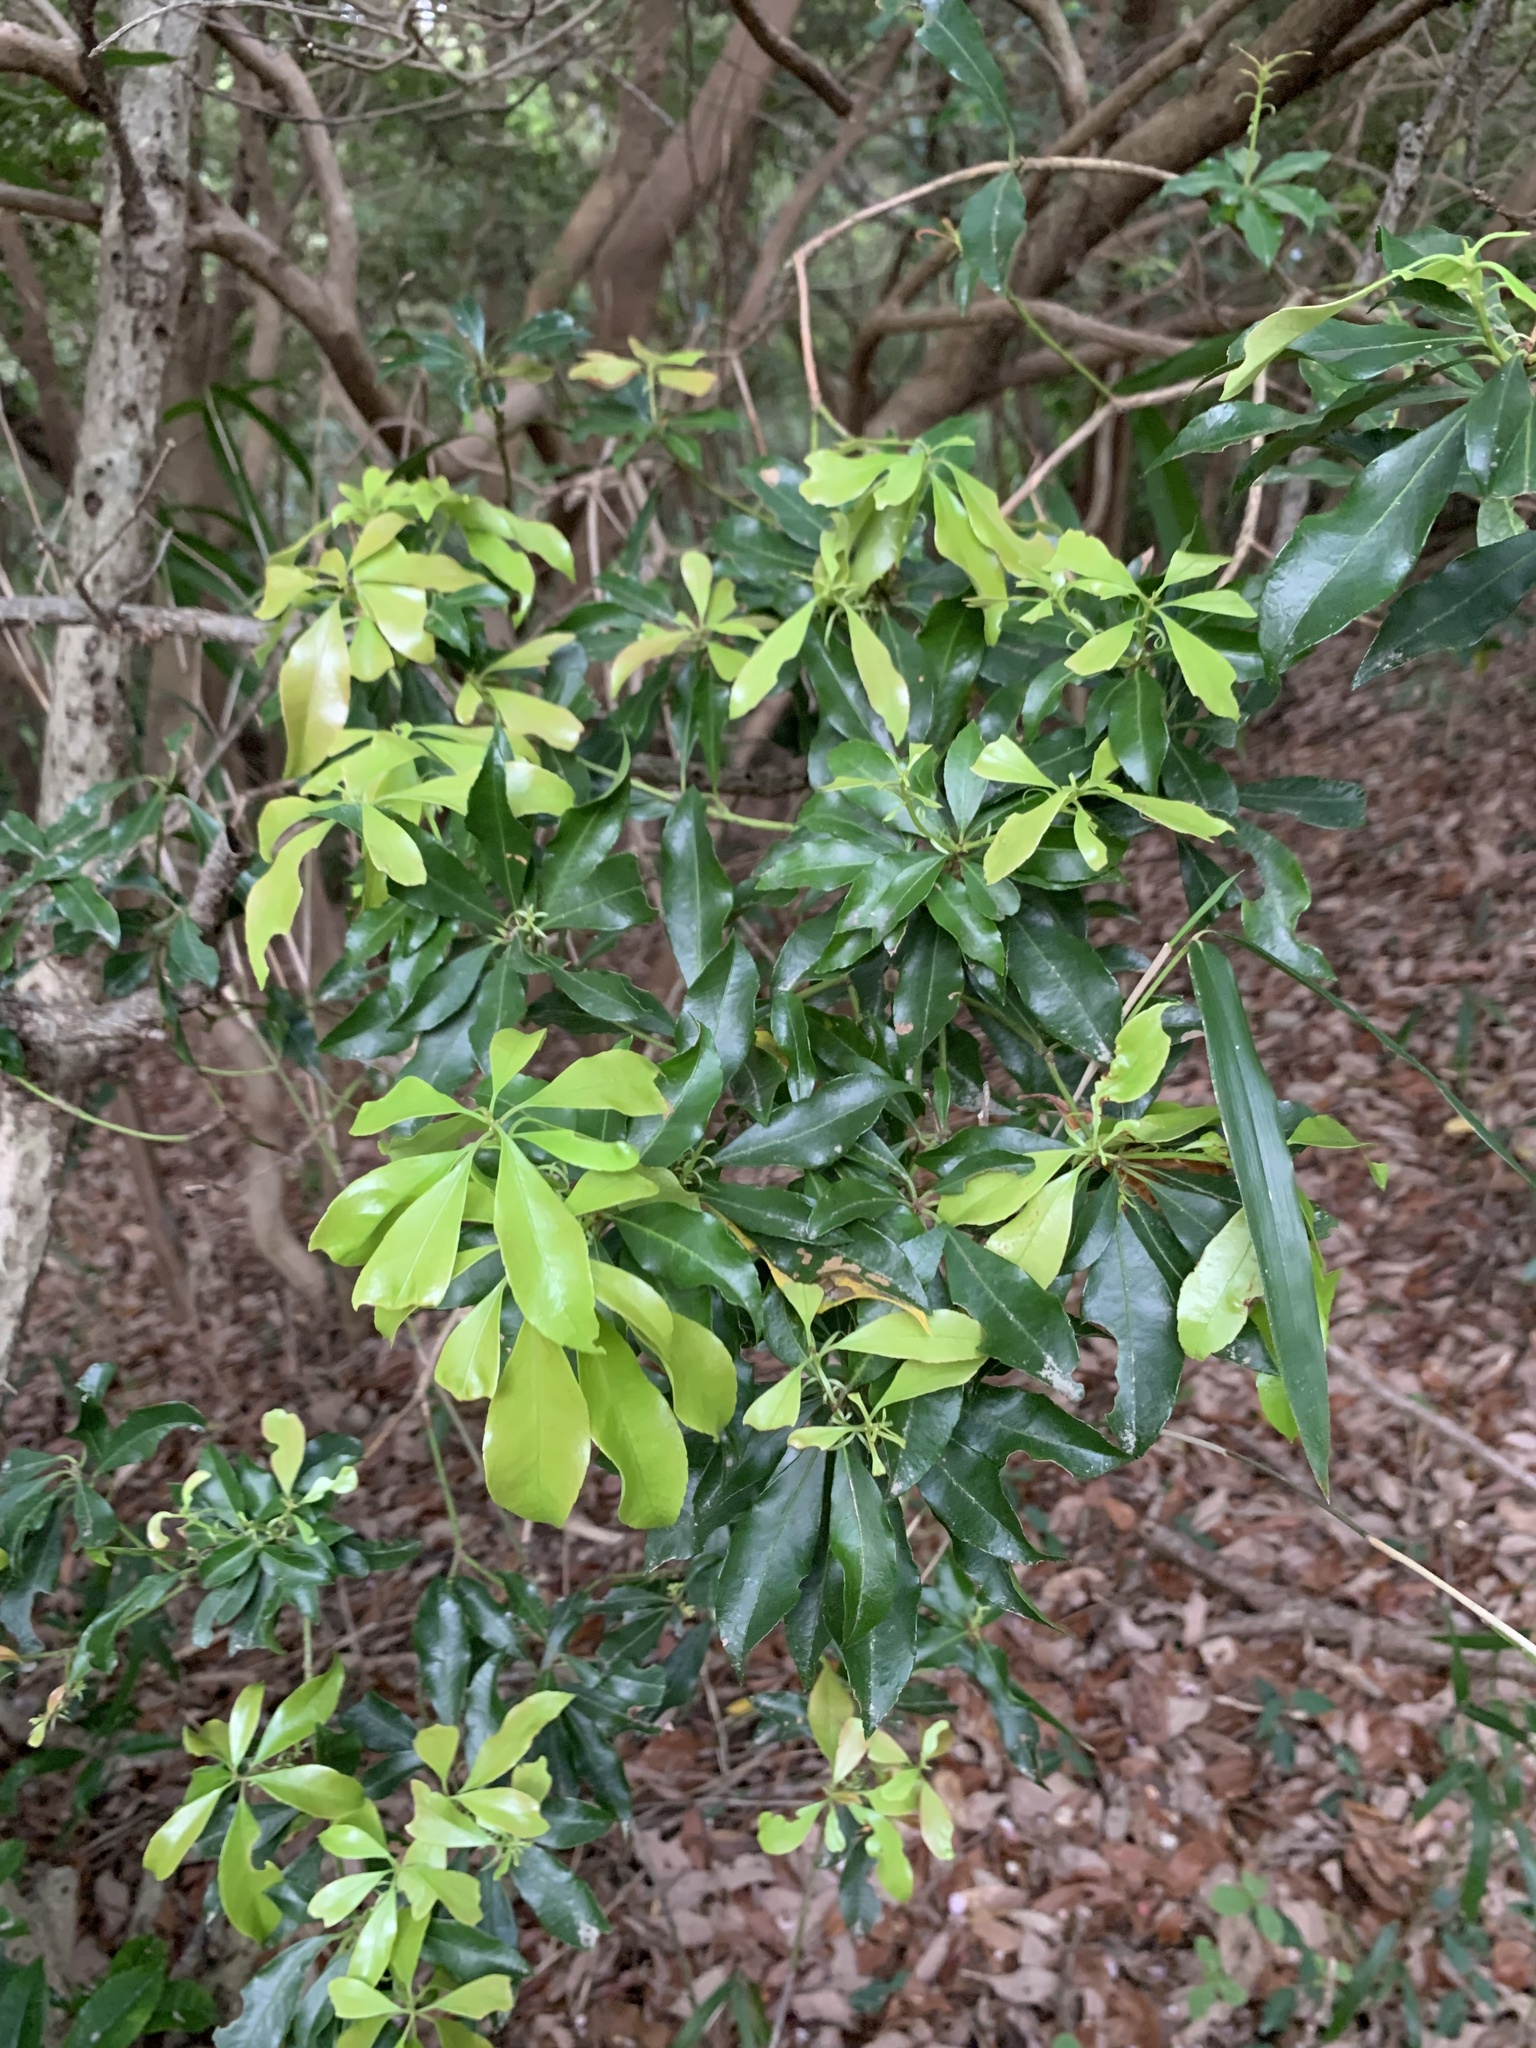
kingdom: Plantae
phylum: Tracheophyta
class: Magnoliopsida
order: Ericales
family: Ericaceae
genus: Pieris
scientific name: Pieris japonica
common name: Japanese pieris
